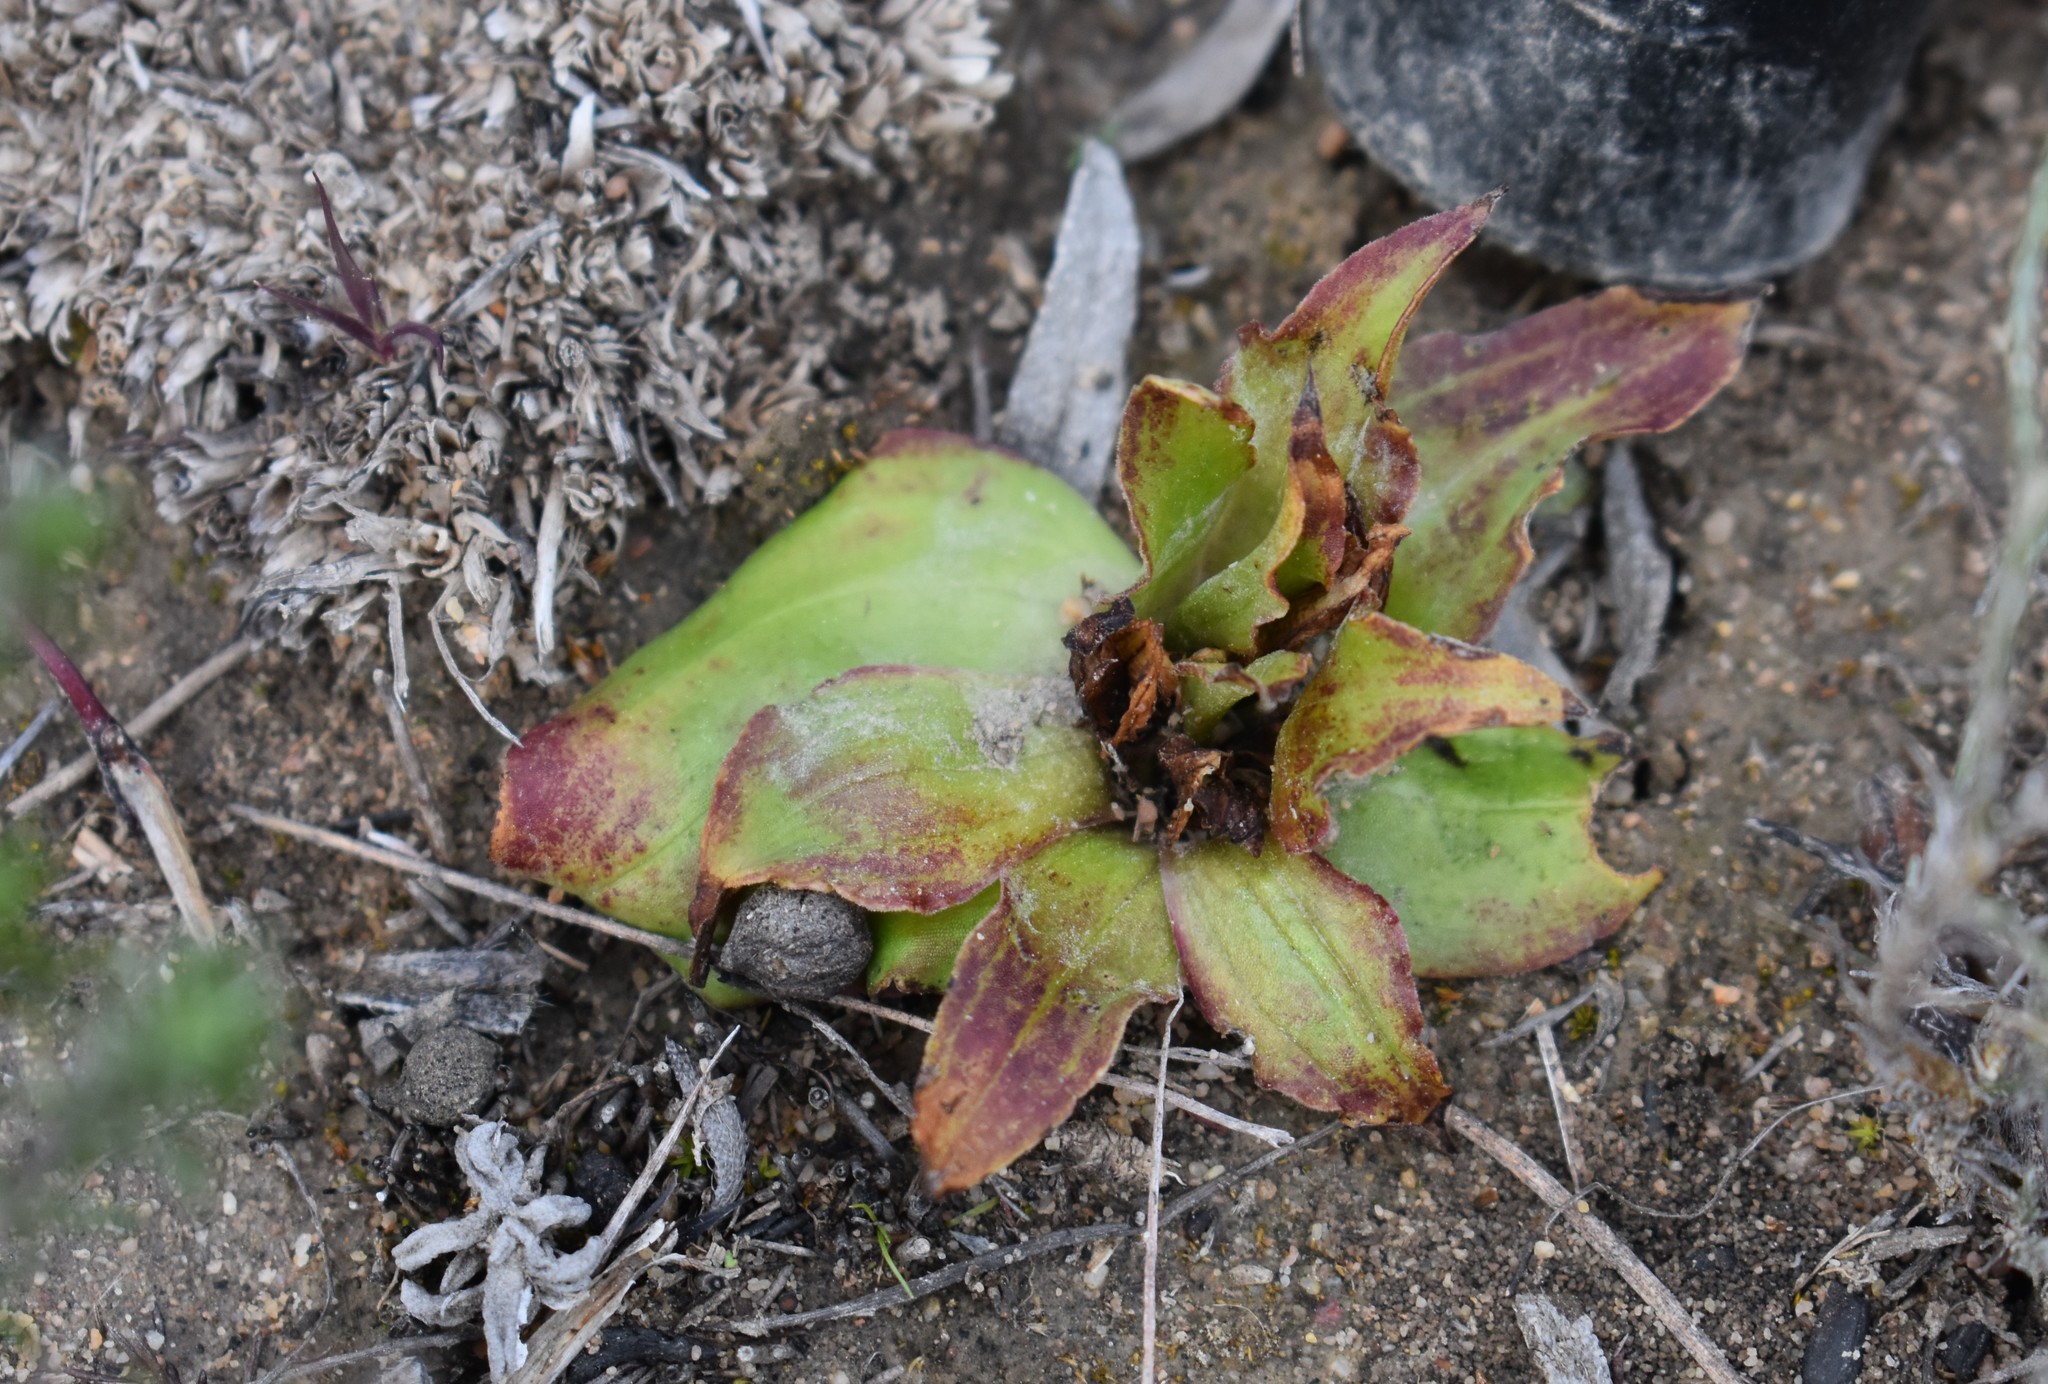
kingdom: Plantae
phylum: Tracheophyta
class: Liliopsida
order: Asparagales
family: Orchidaceae
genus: Satyrium
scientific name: Satyrium pumilum
